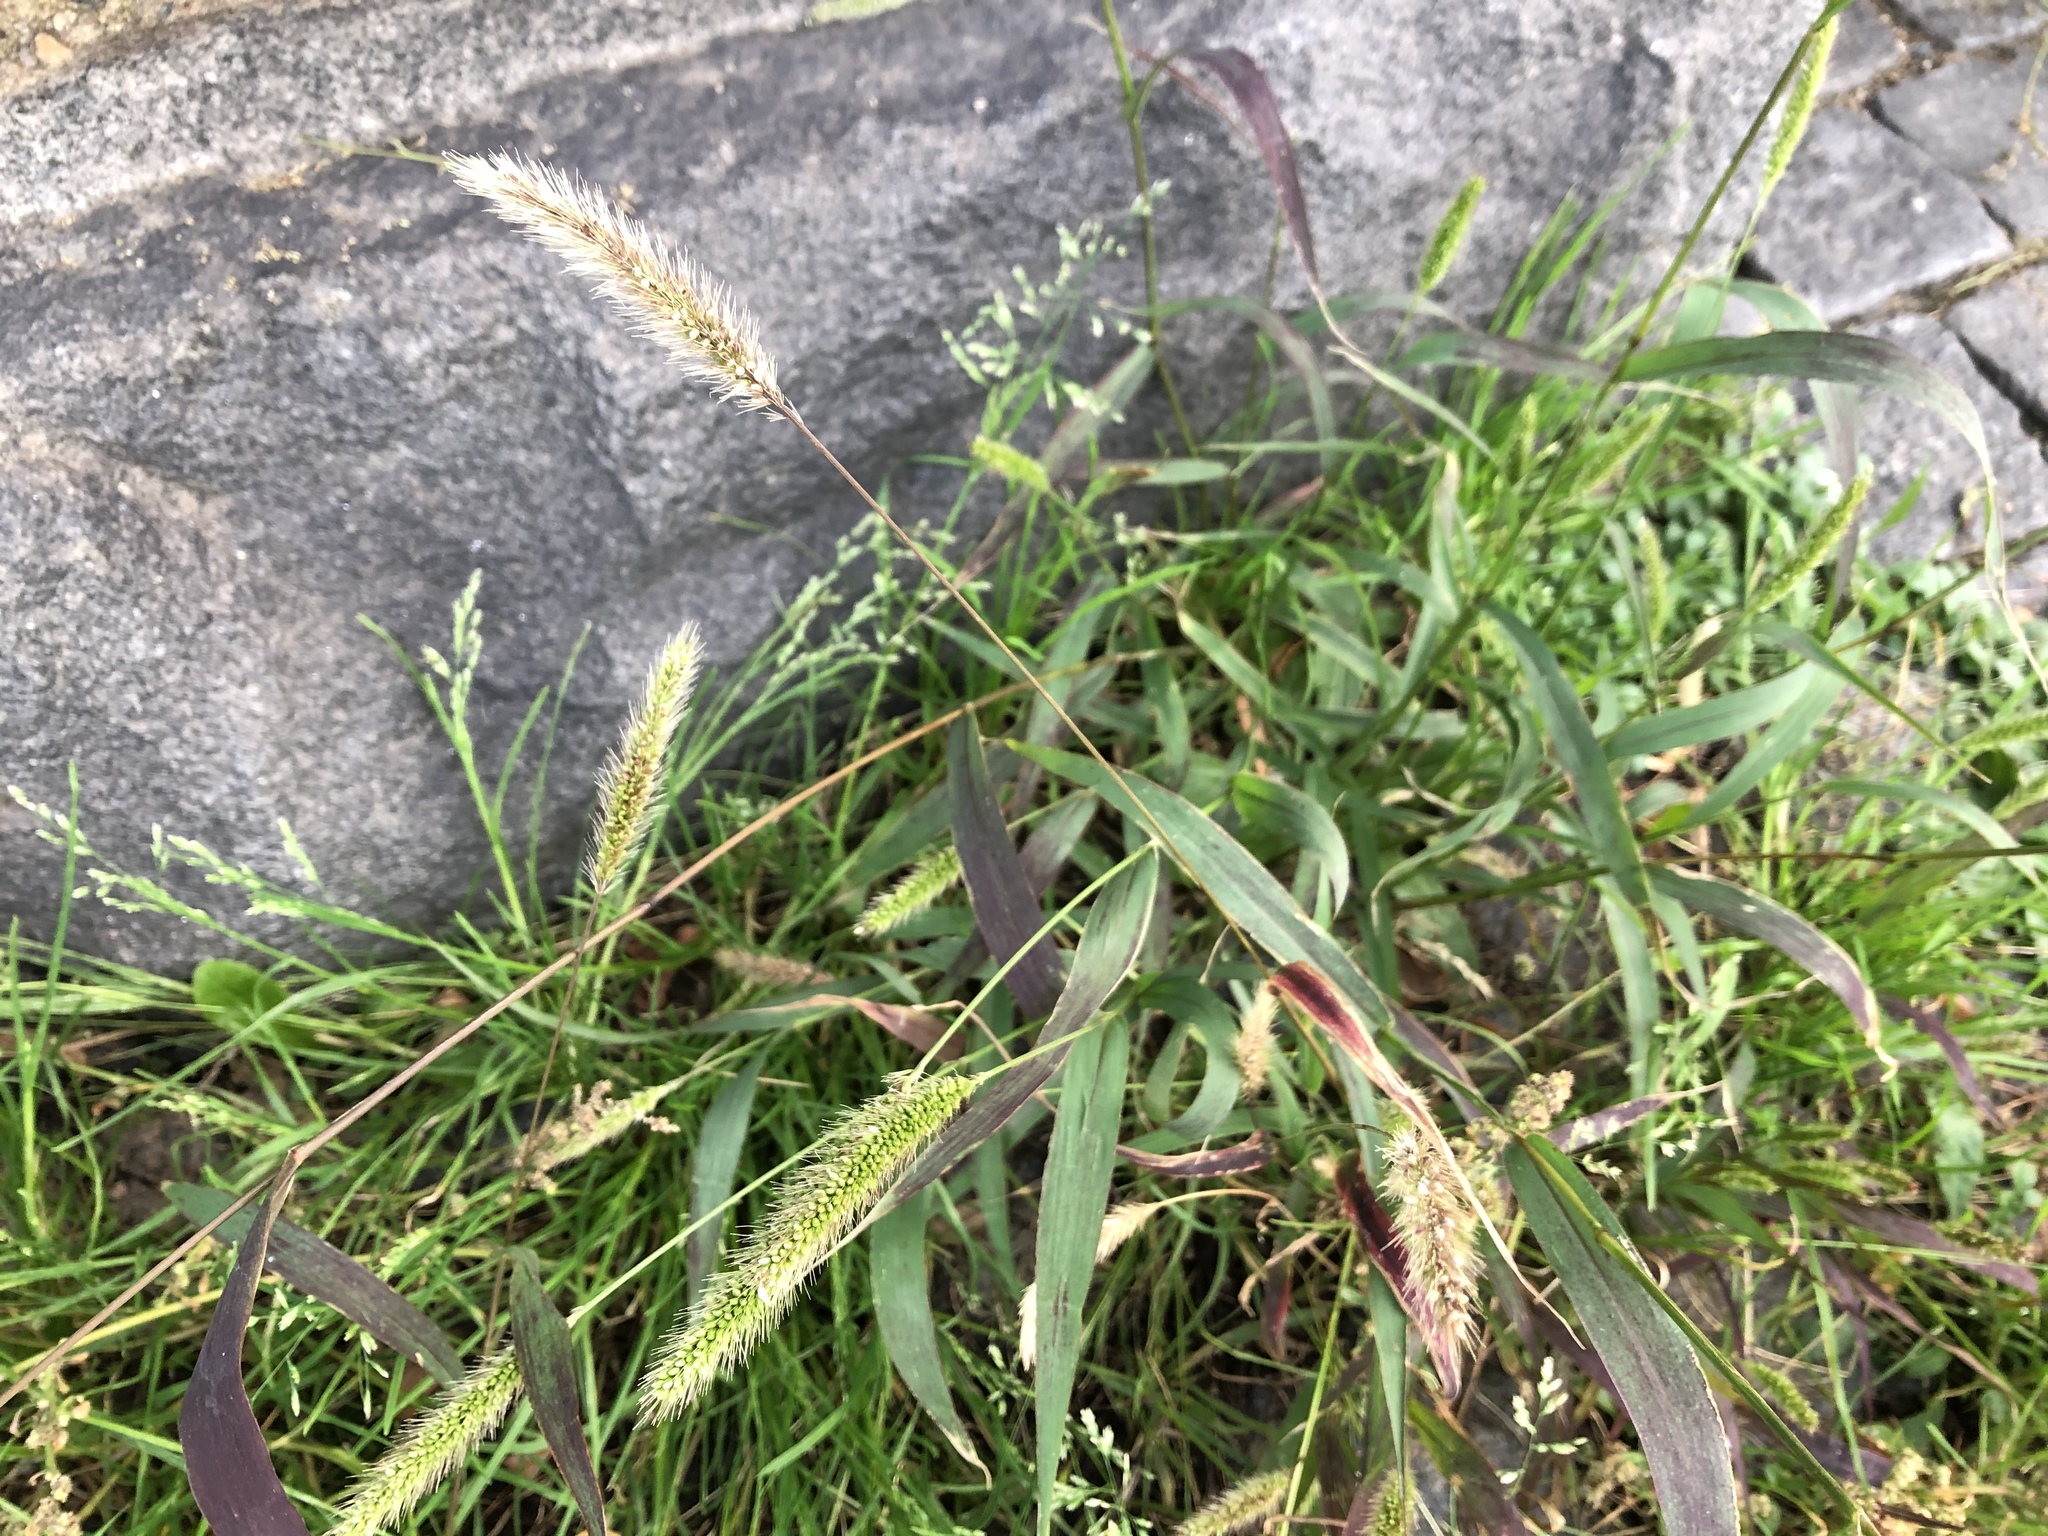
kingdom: Plantae
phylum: Tracheophyta
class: Liliopsida
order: Poales
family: Poaceae
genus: Setaria
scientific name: Setaria viridis
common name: Green bristlegrass
